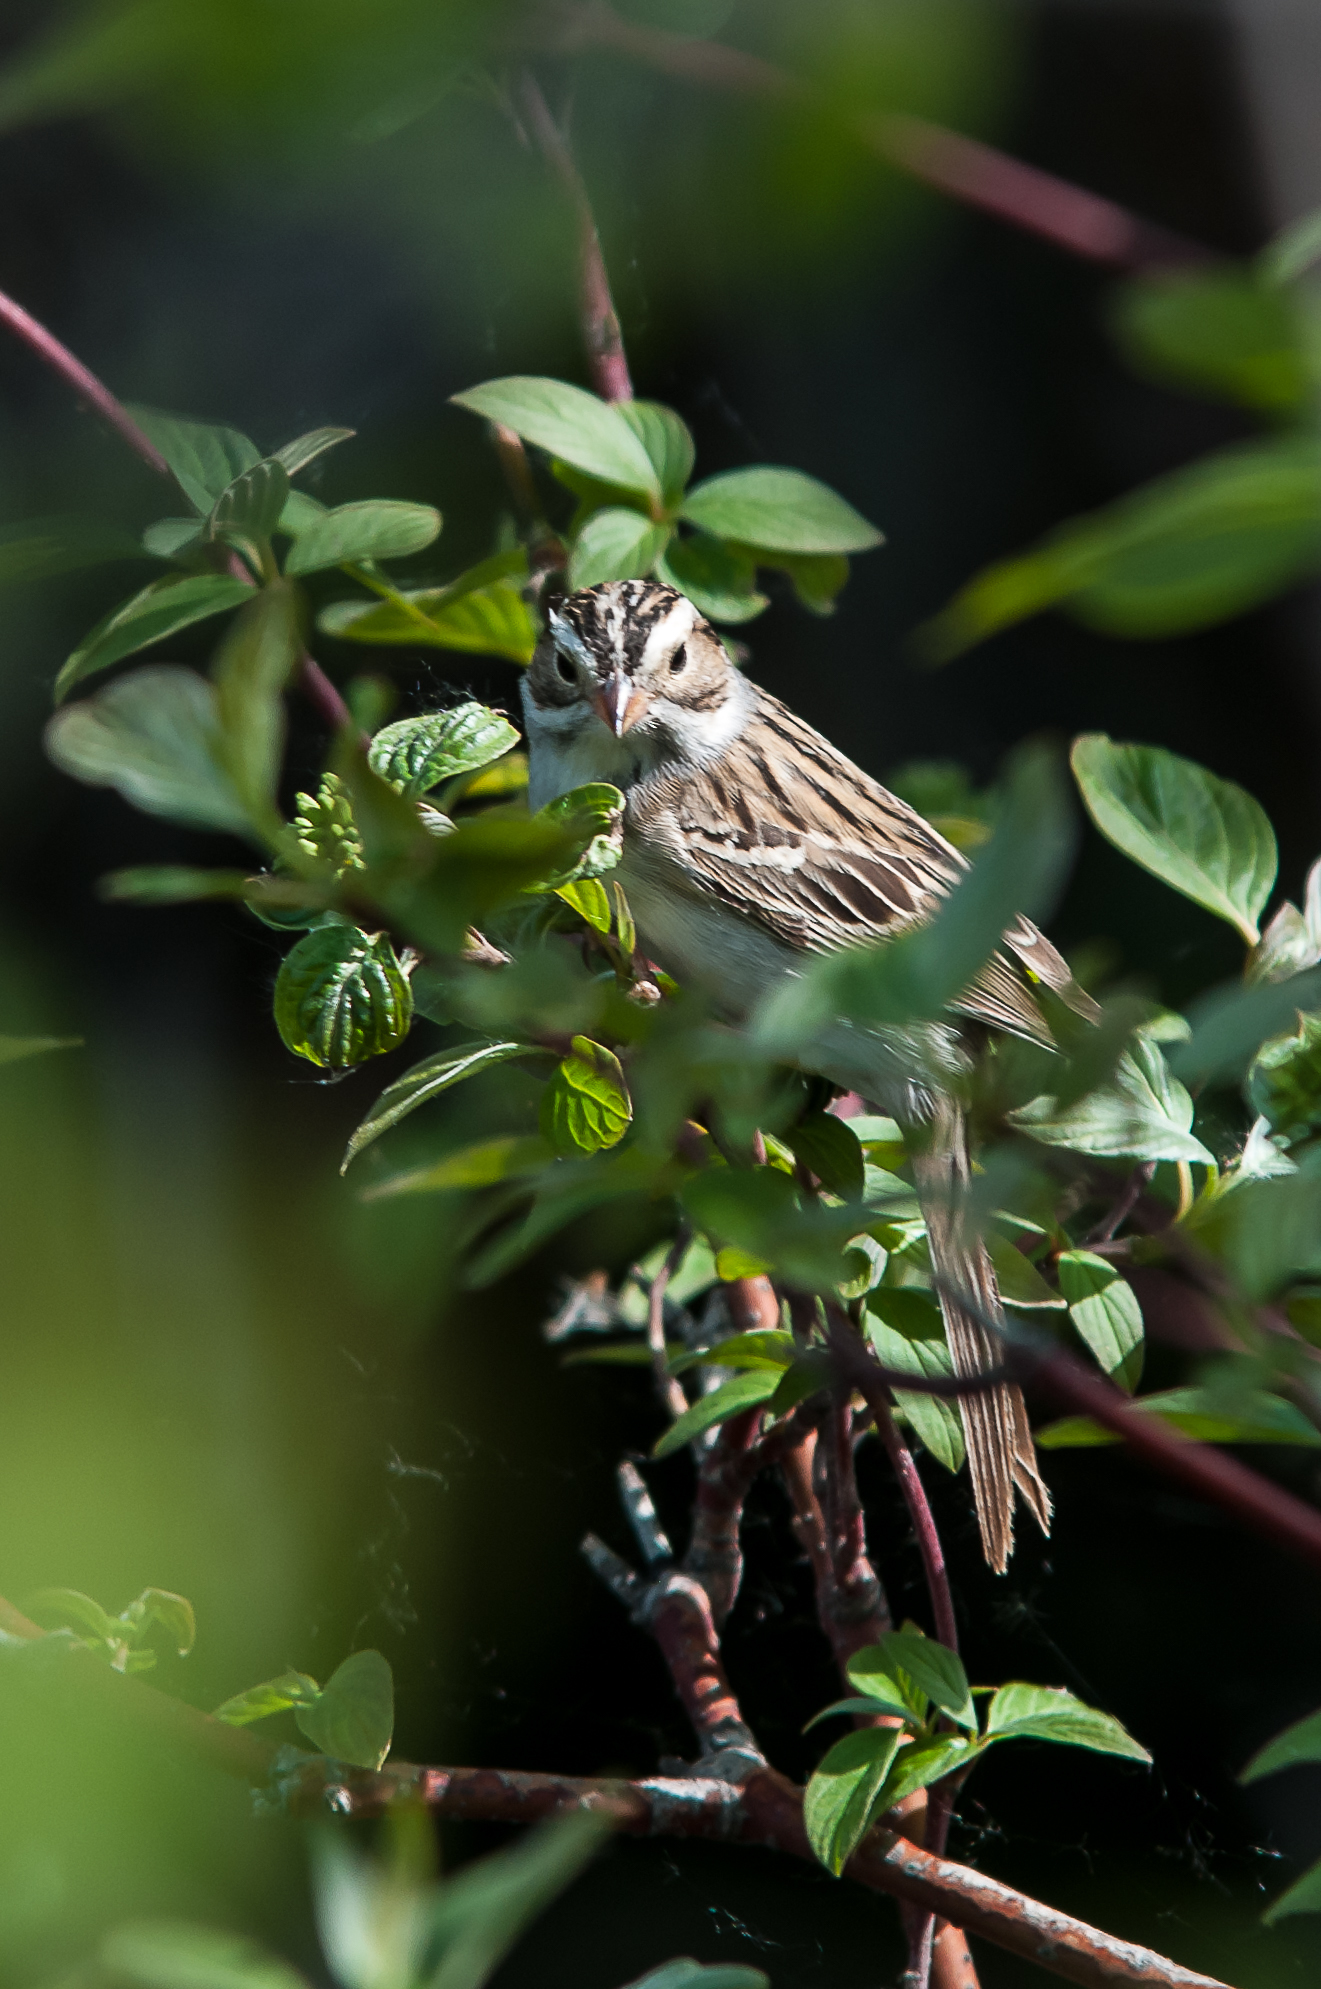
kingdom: Animalia
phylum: Chordata
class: Aves
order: Passeriformes
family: Passerellidae
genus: Spizella
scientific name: Spizella pallida
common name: Clay-colored sparrow
